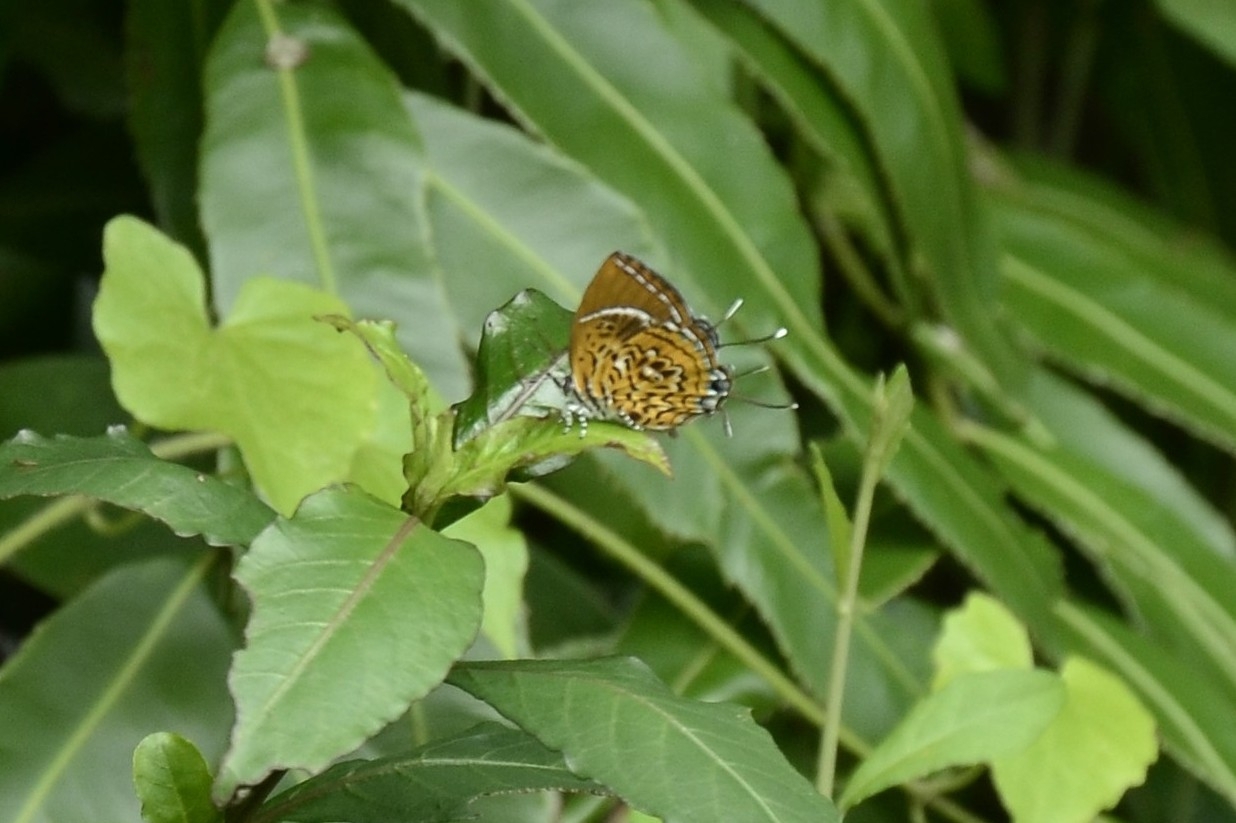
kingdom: Animalia
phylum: Arthropoda
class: Insecta
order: Lepidoptera
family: Lycaenidae
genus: Rathinda
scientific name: Rathinda amor
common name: Monkey puzzle
